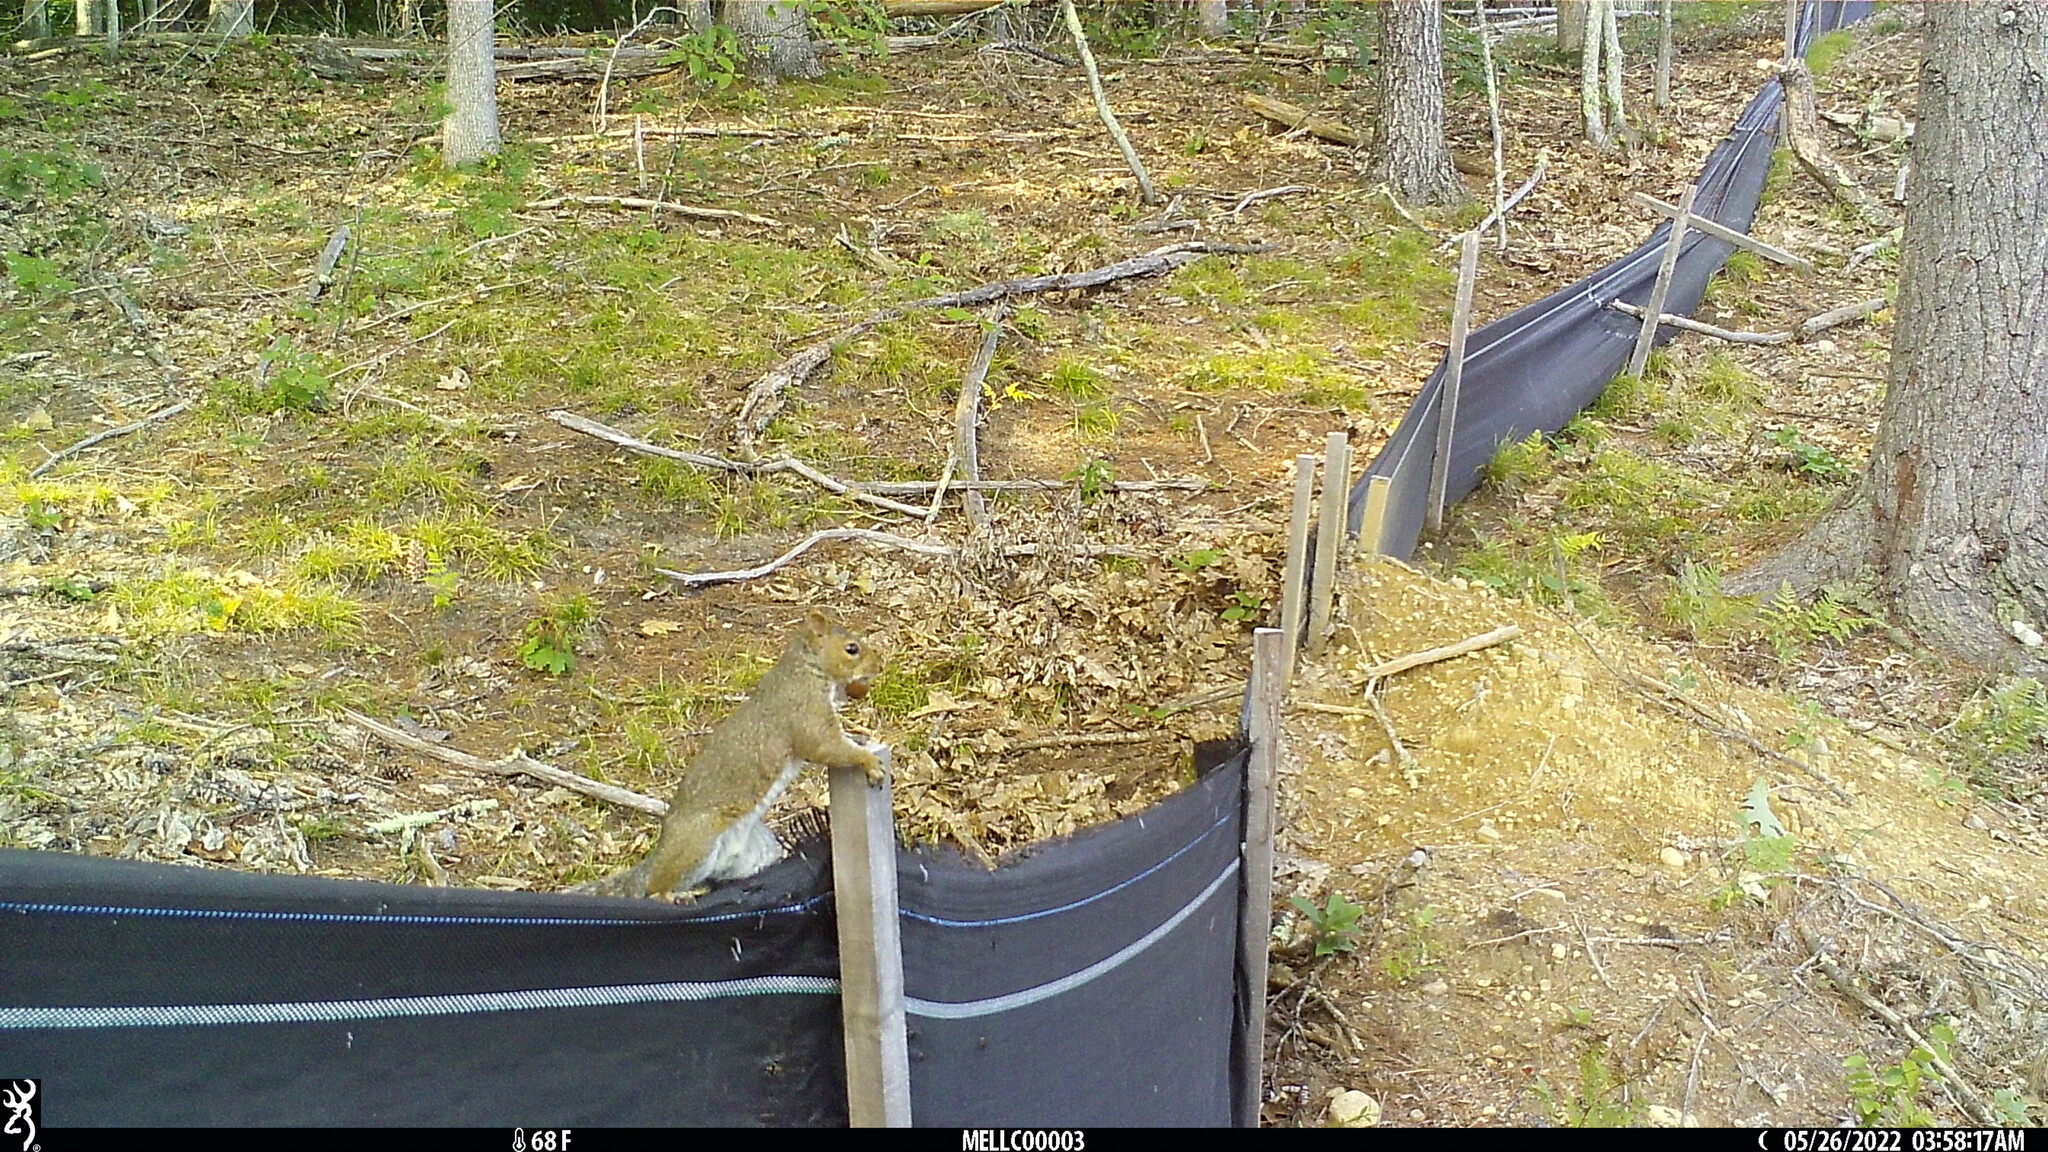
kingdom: Animalia
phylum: Chordata
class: Mammalia
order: Rodentia
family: Sciuridae
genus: Sciurus
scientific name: Sciurus carolinensis
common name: Eastern gray squirrel
